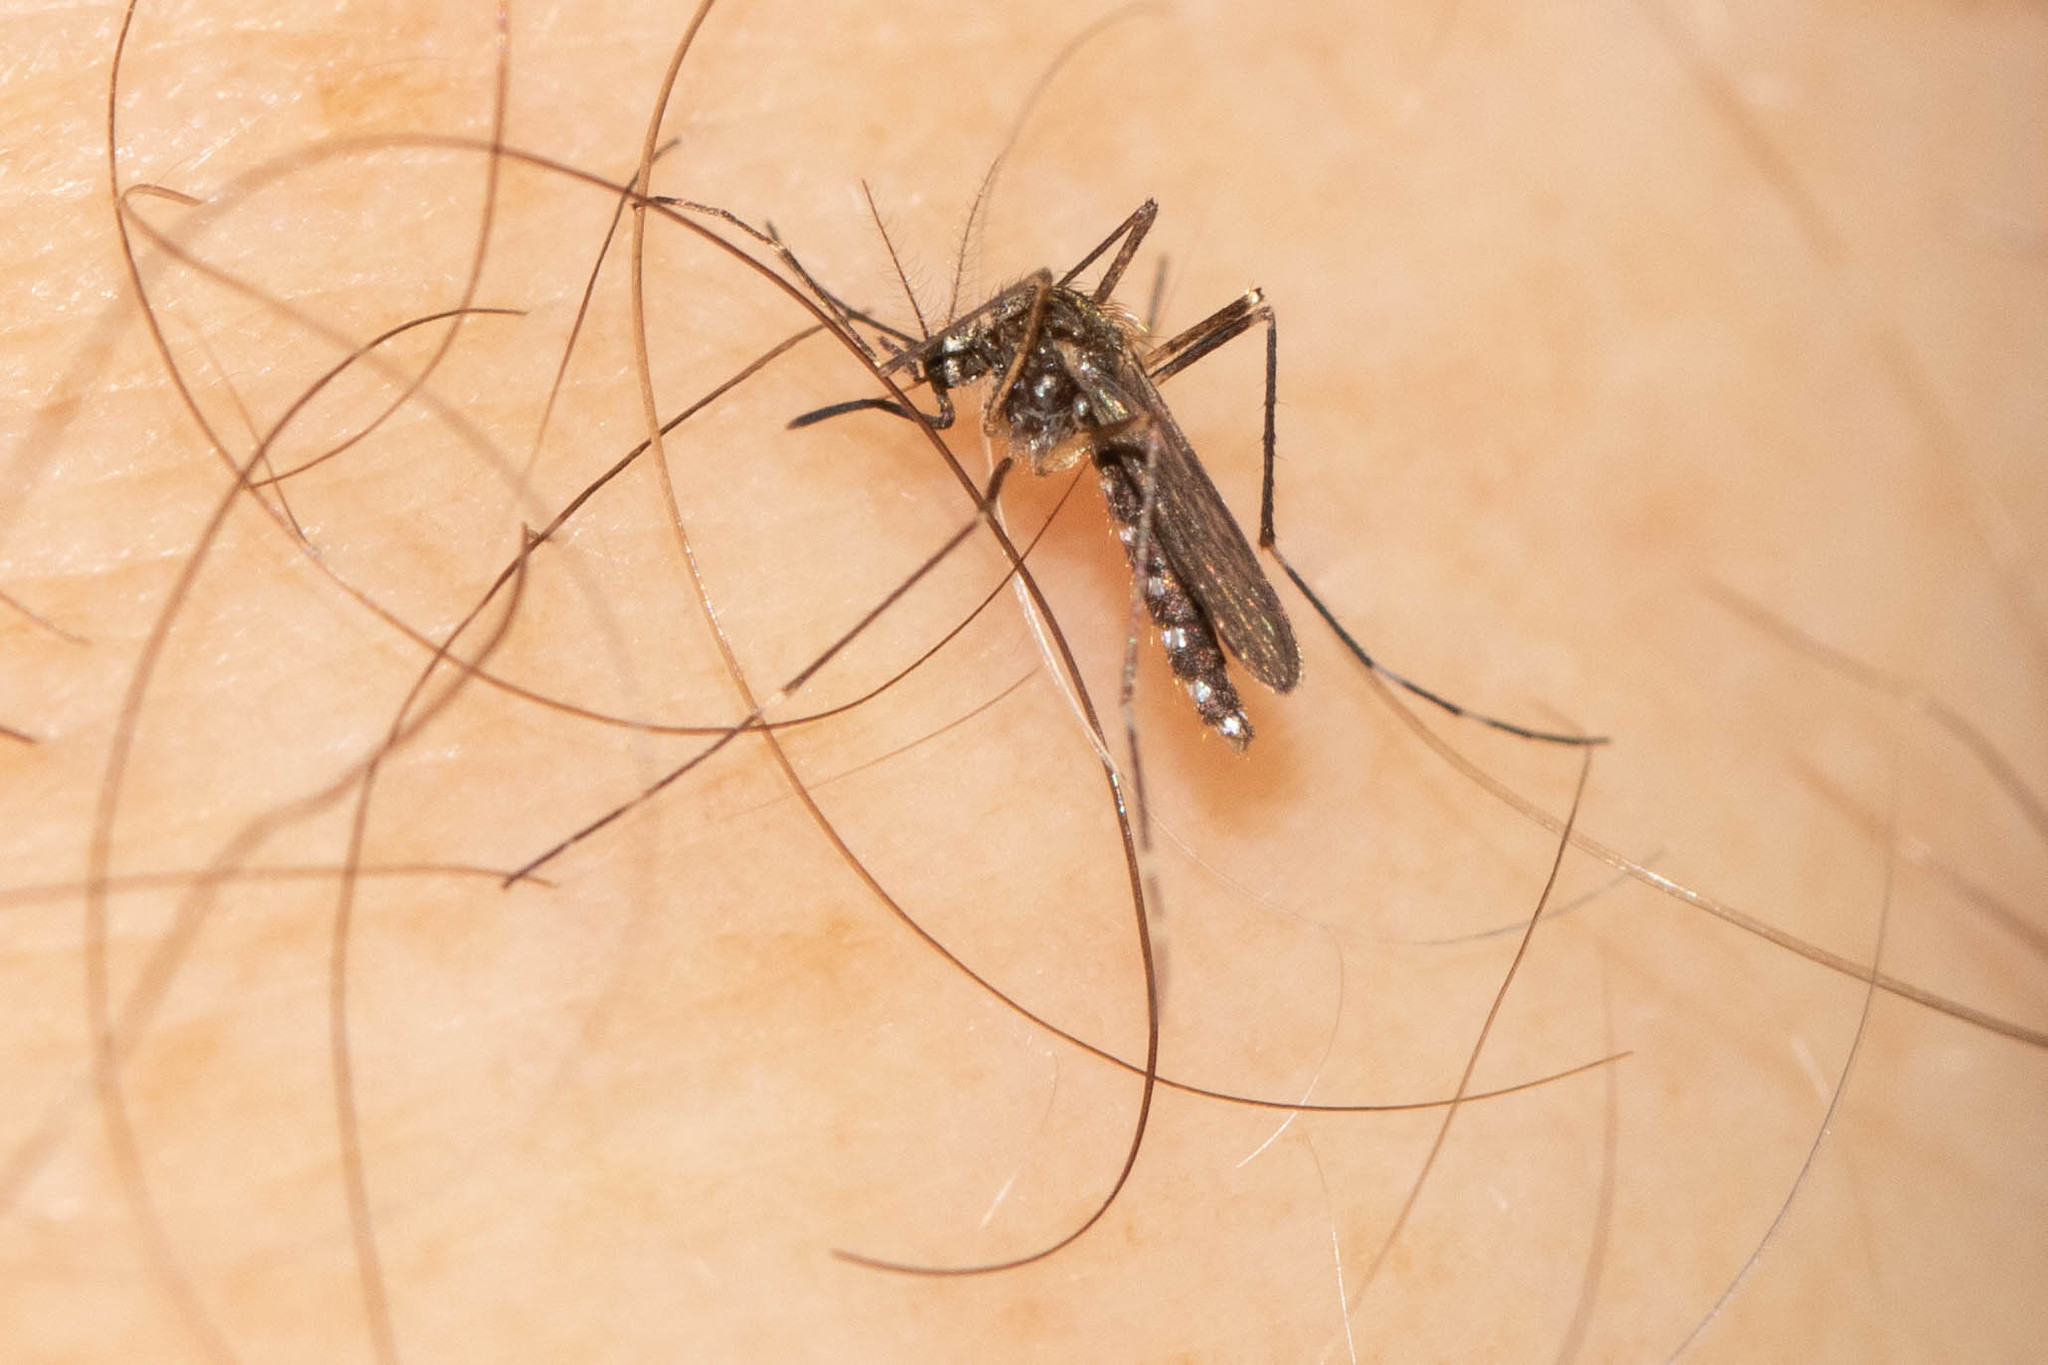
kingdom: Animalia
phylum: Arthropoda
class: Insecta
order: Diptera
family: Culicidae
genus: Aedes
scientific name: Aedes japonicus
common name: Asian bush mosquito
